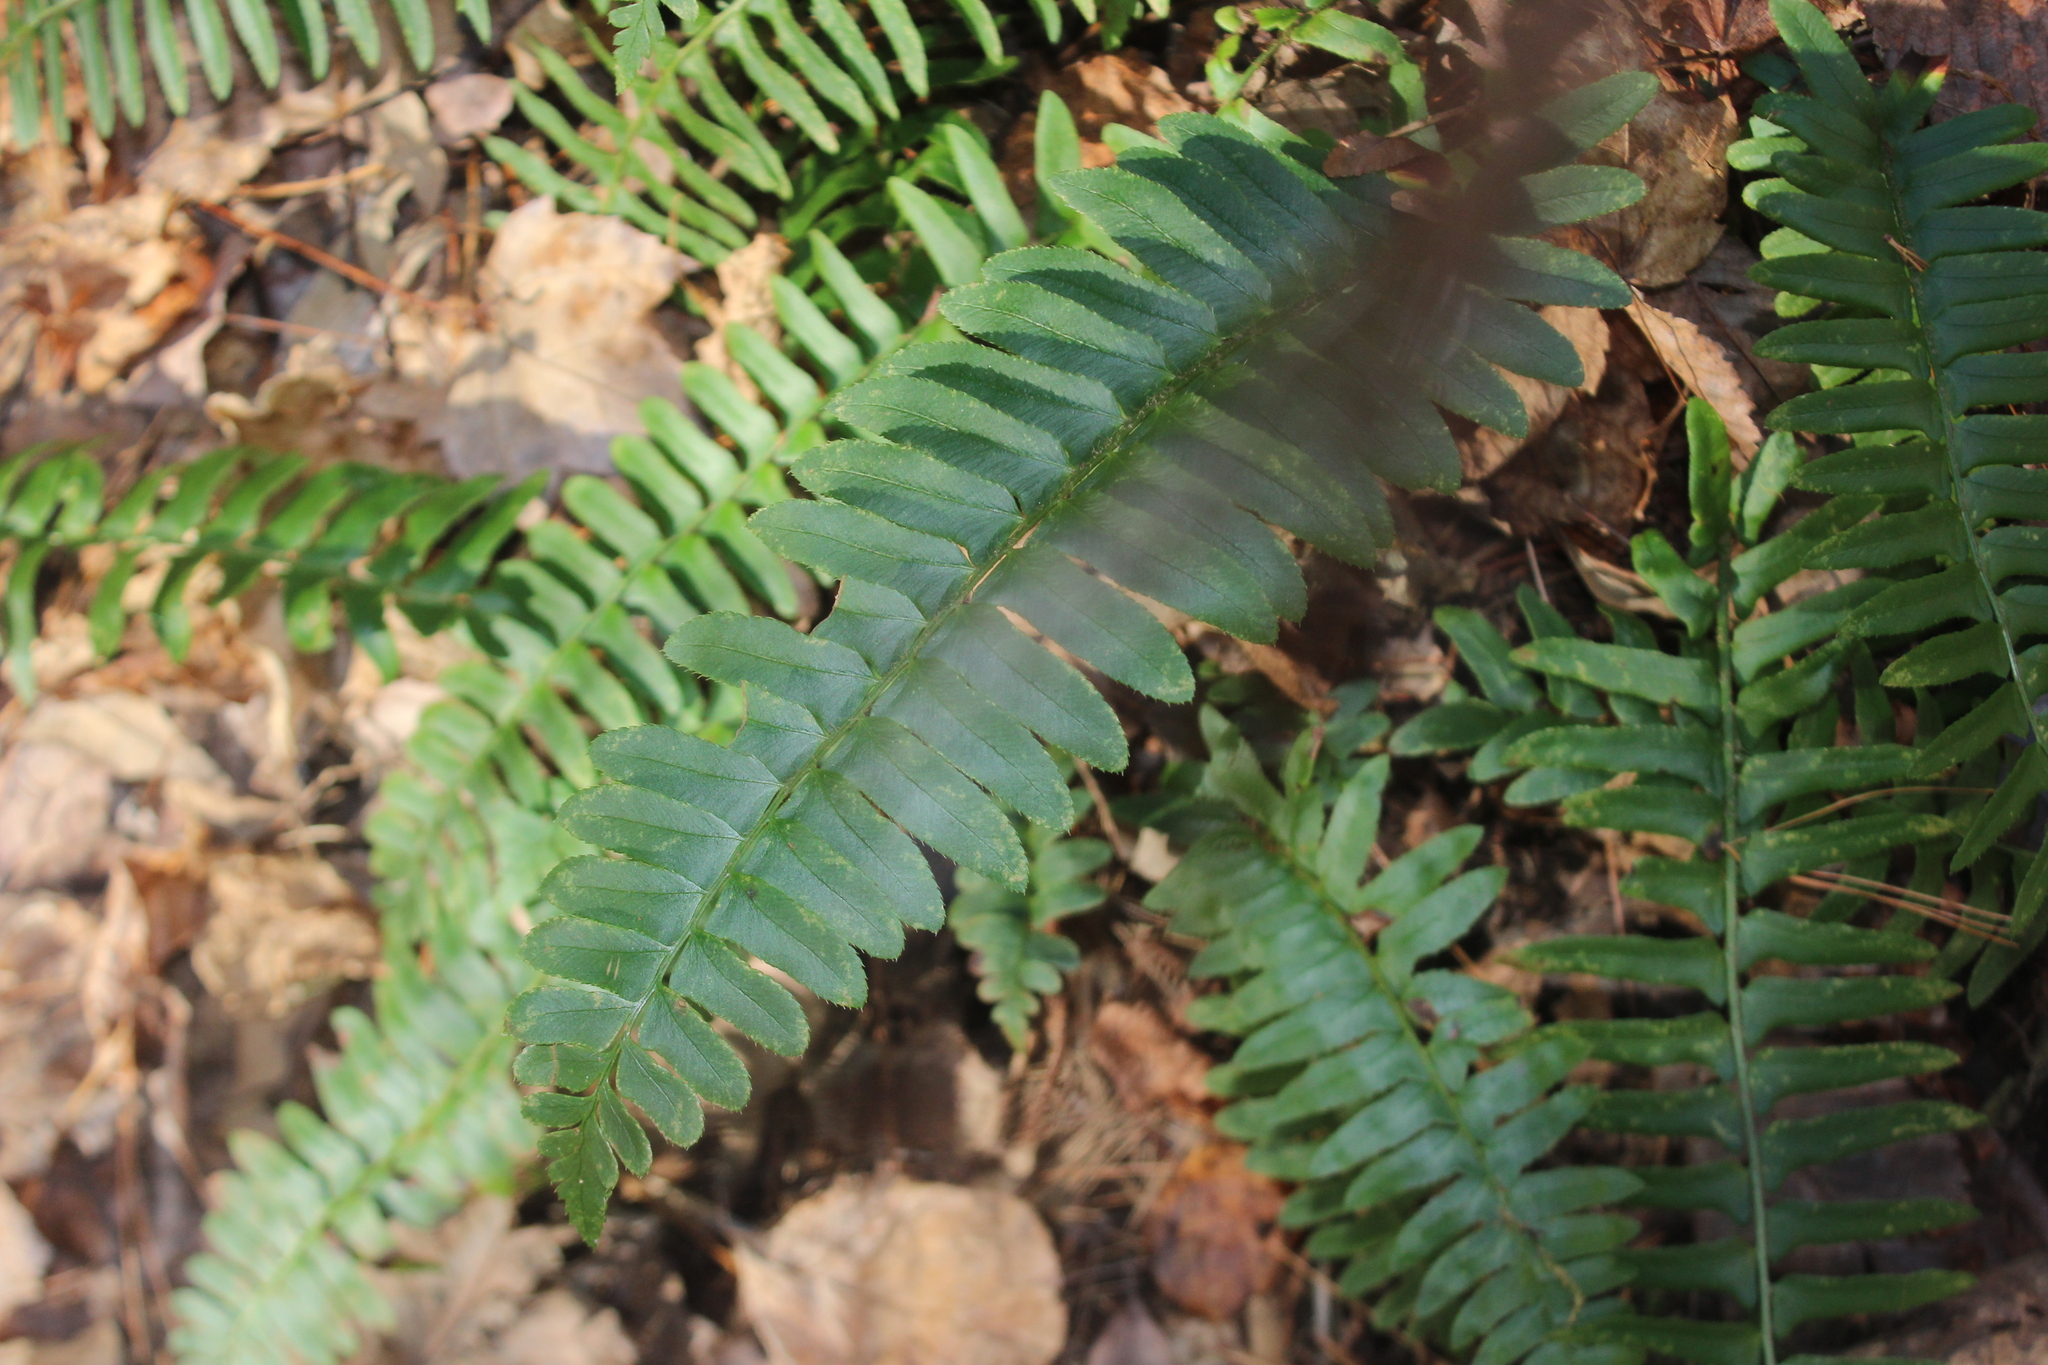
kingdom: Plantae
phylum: Tracheophyta
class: Polypodiopsida
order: Polypodiales
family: Dryopteridaceae
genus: Polystichum
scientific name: Polystichum acrostichoides
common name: Christmas fern
